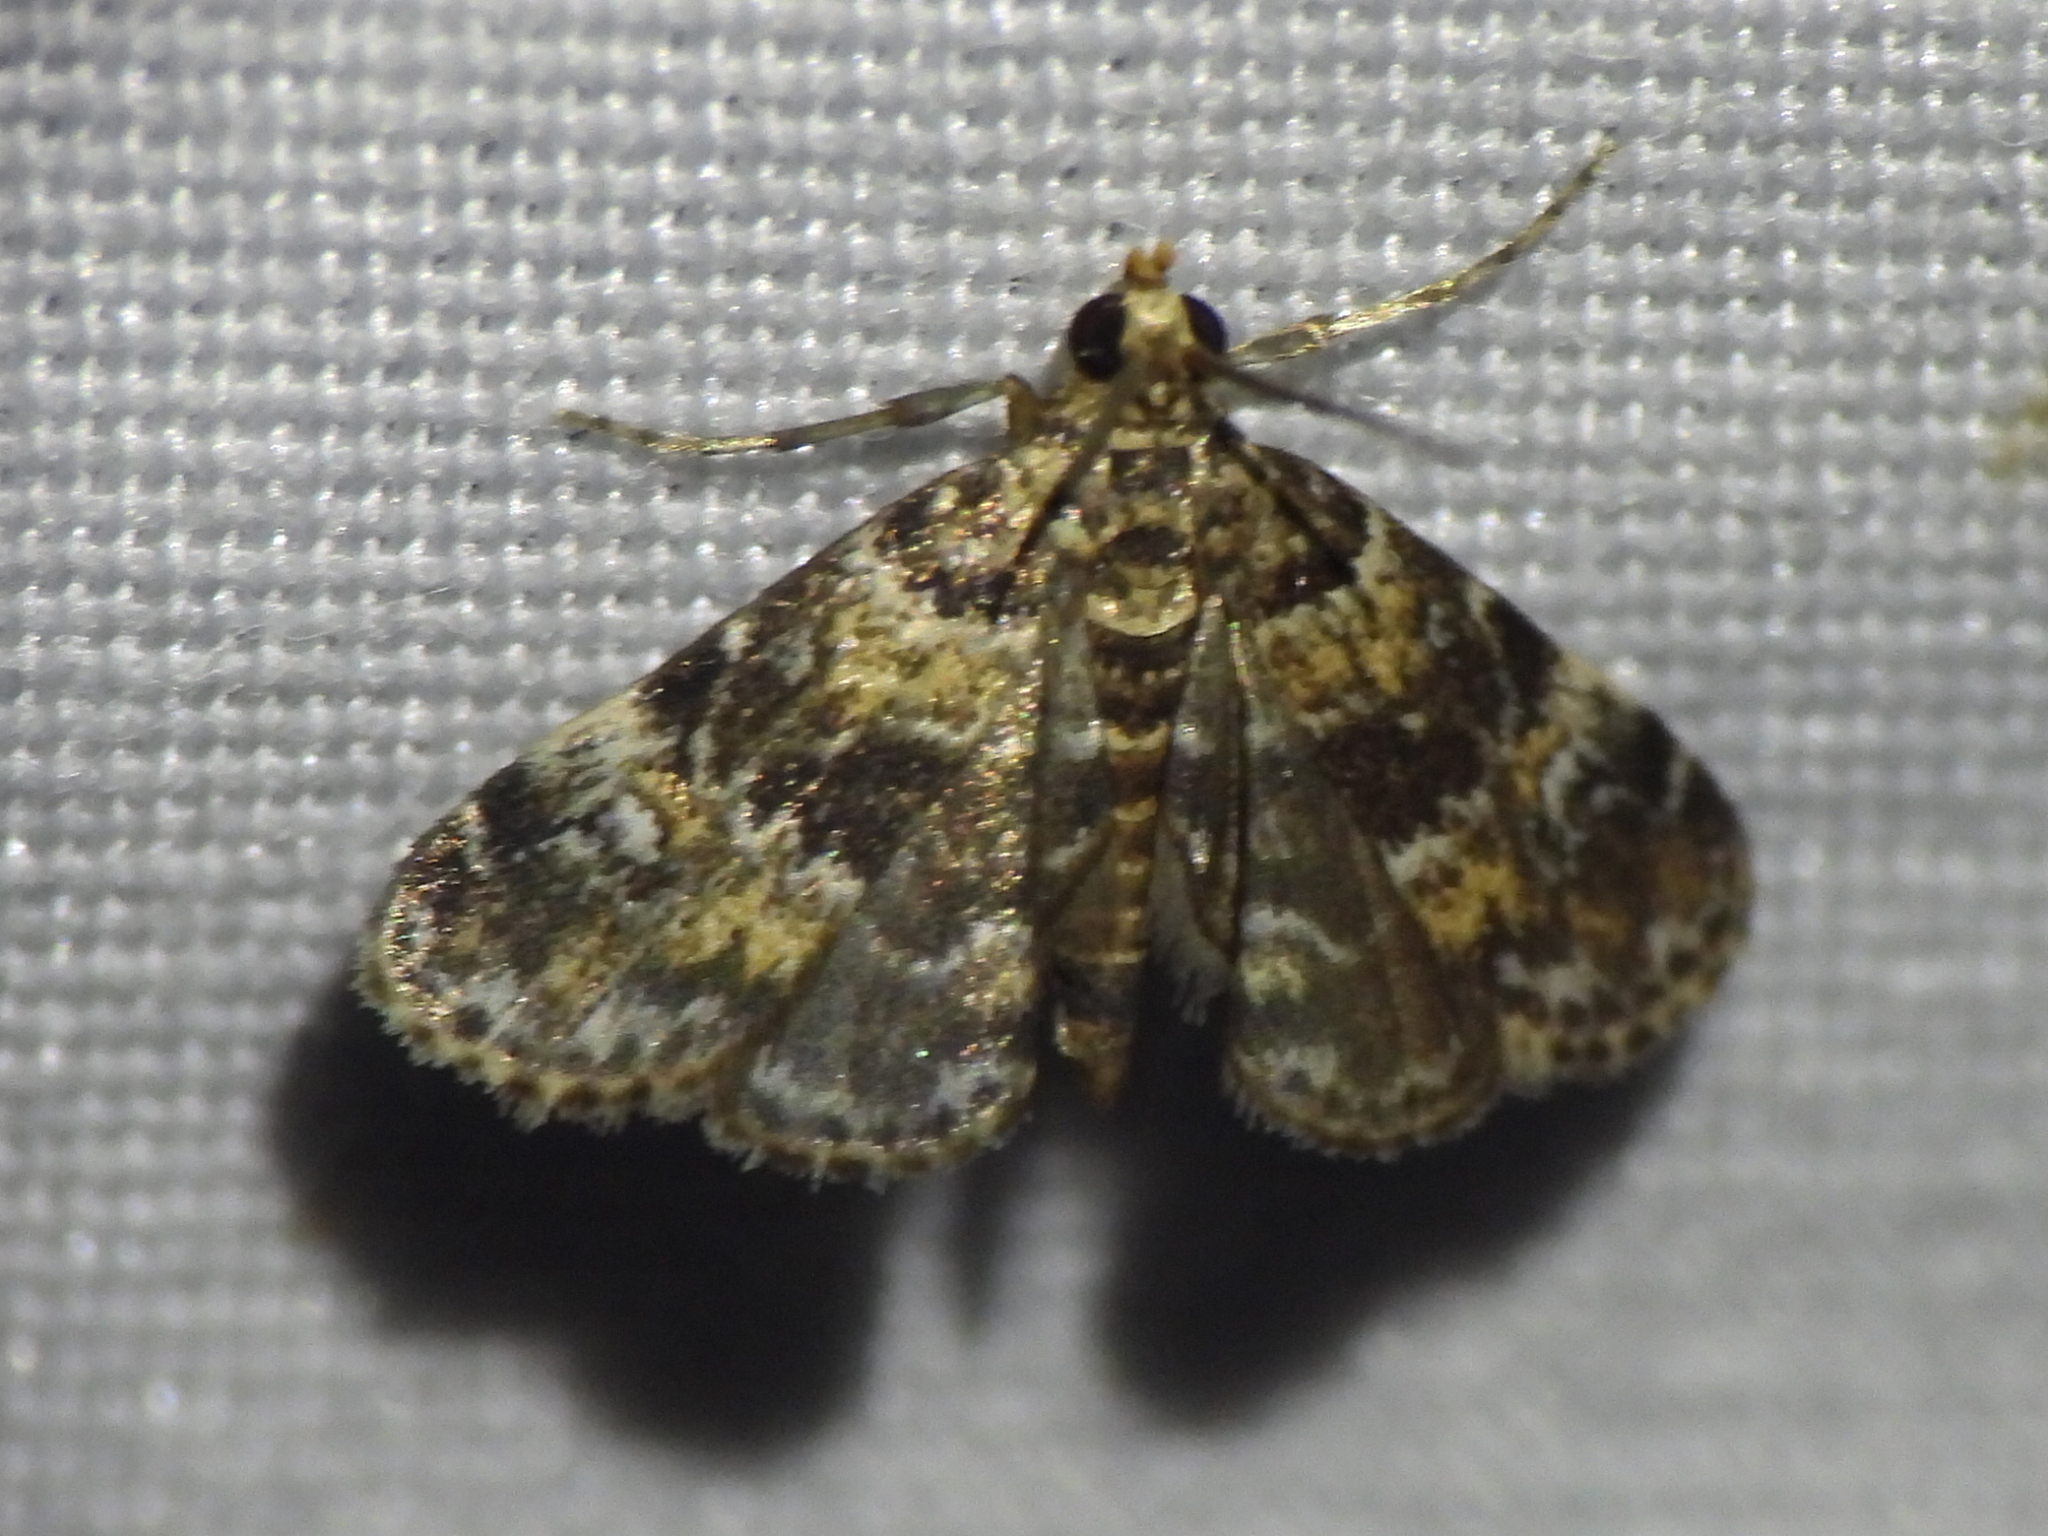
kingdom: Animalia
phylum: Arthropoda
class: Insecta
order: Lepidoptera
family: Crambidae
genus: Elophila
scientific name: Elophila obliteralis
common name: Waterlily leafcutter moth
